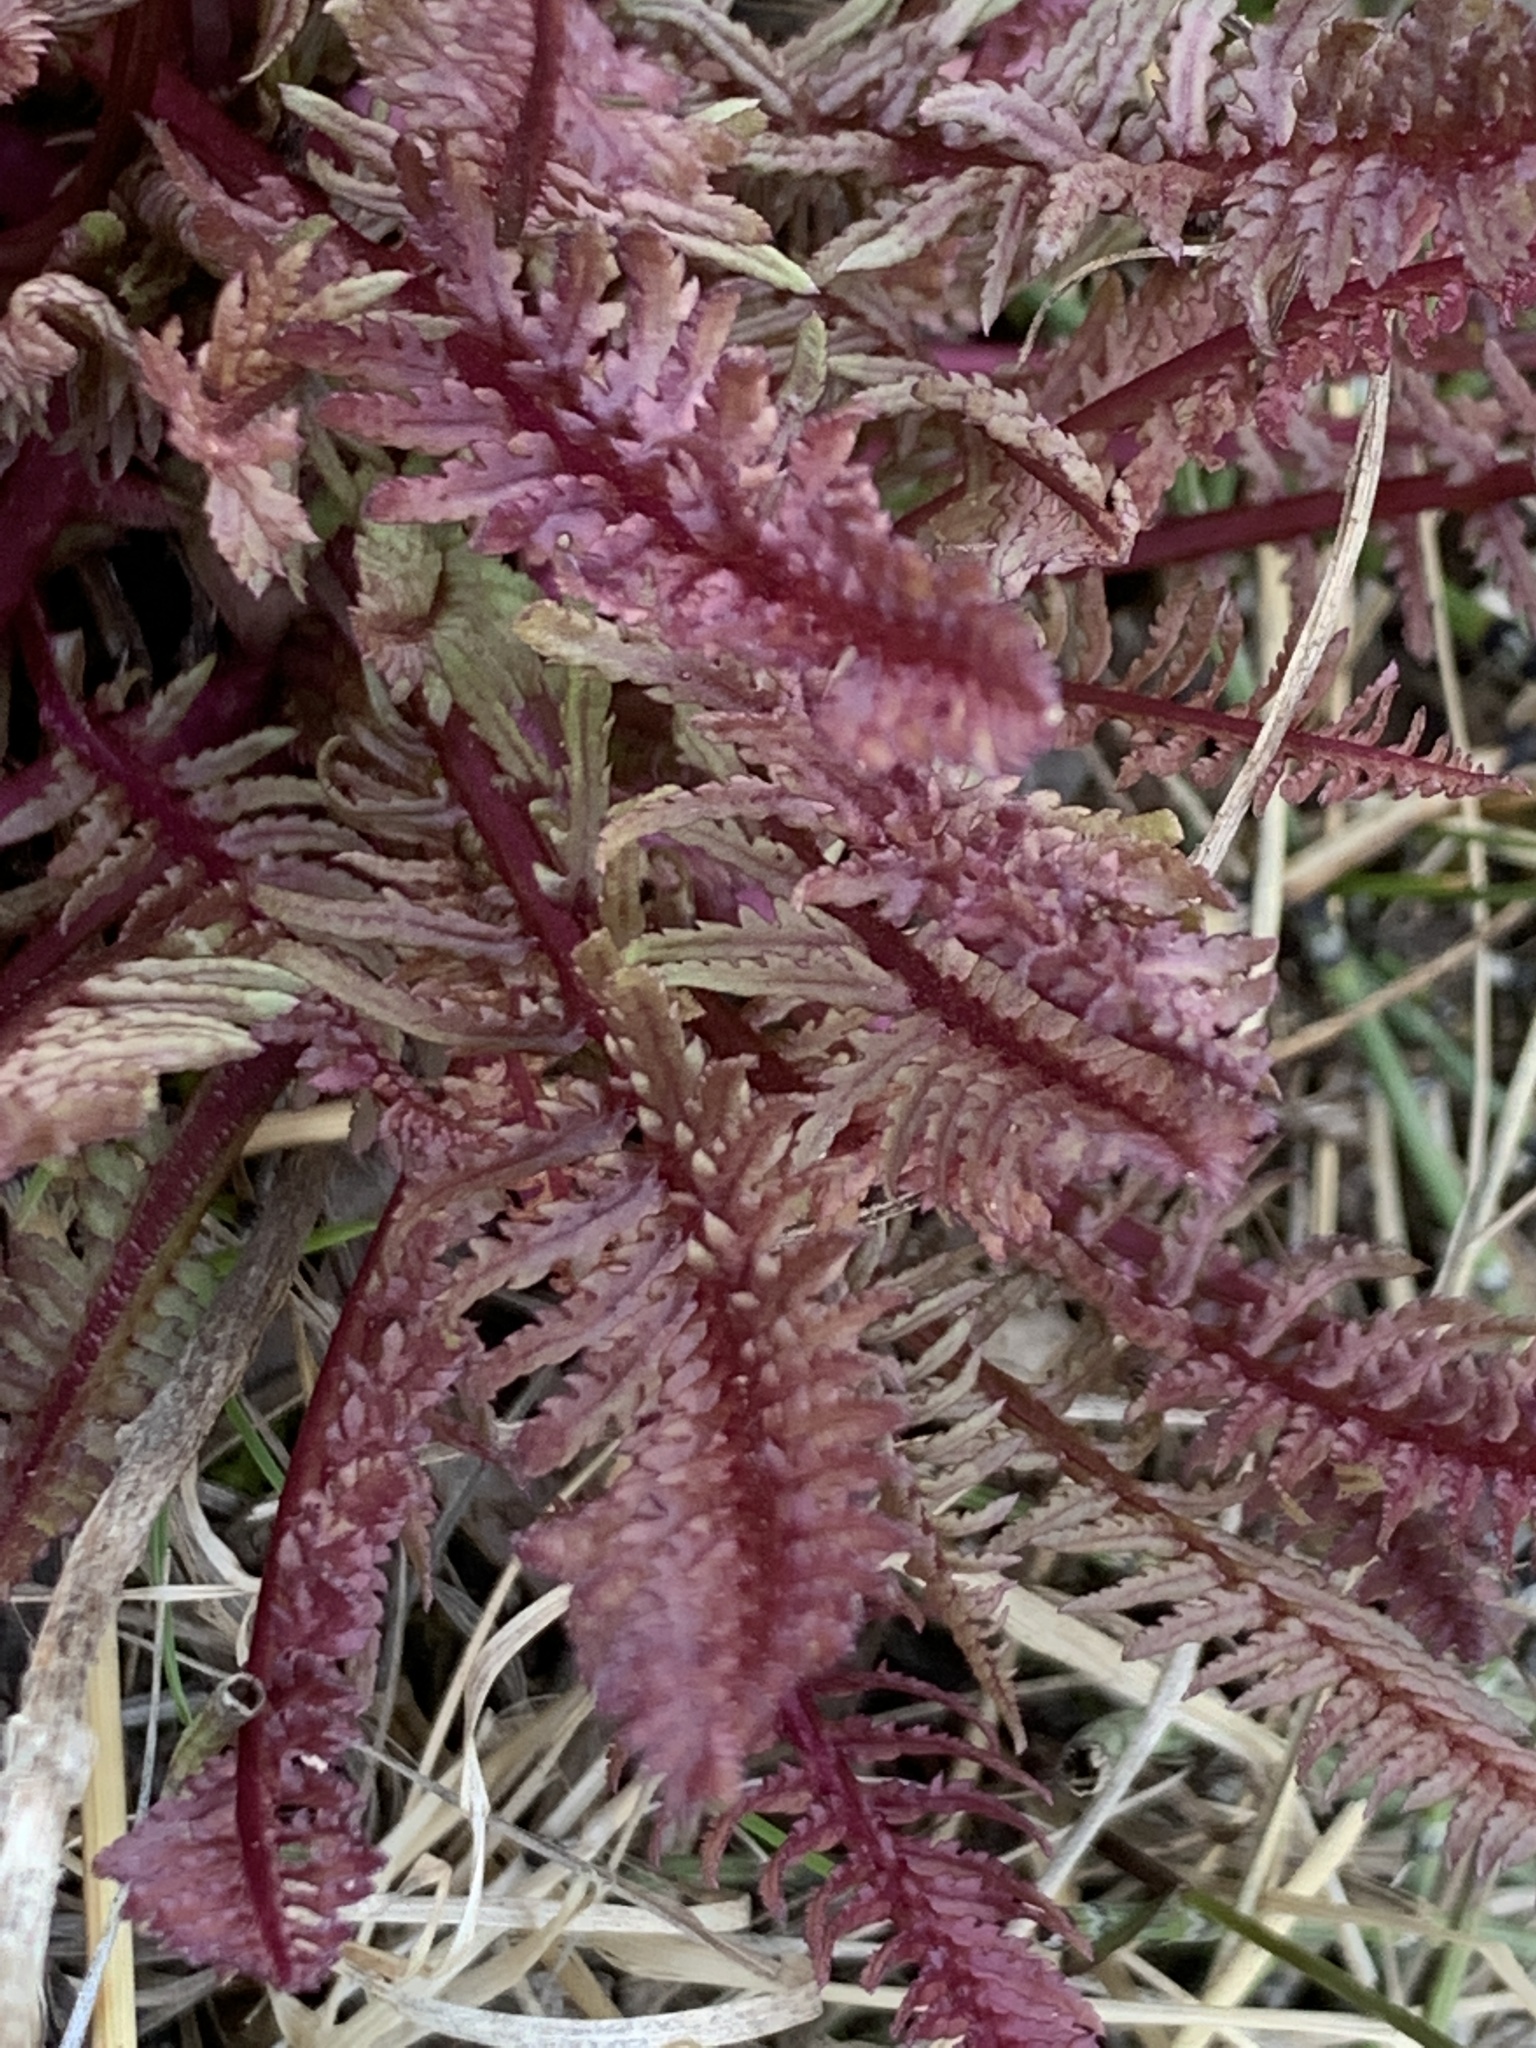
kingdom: Plantae
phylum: Tracheophyta
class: Magnoliopsida
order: Lamiales
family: Orobanchaceae
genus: Pedicularis
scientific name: Pedicularis groenlandica
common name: Elephant's-head
